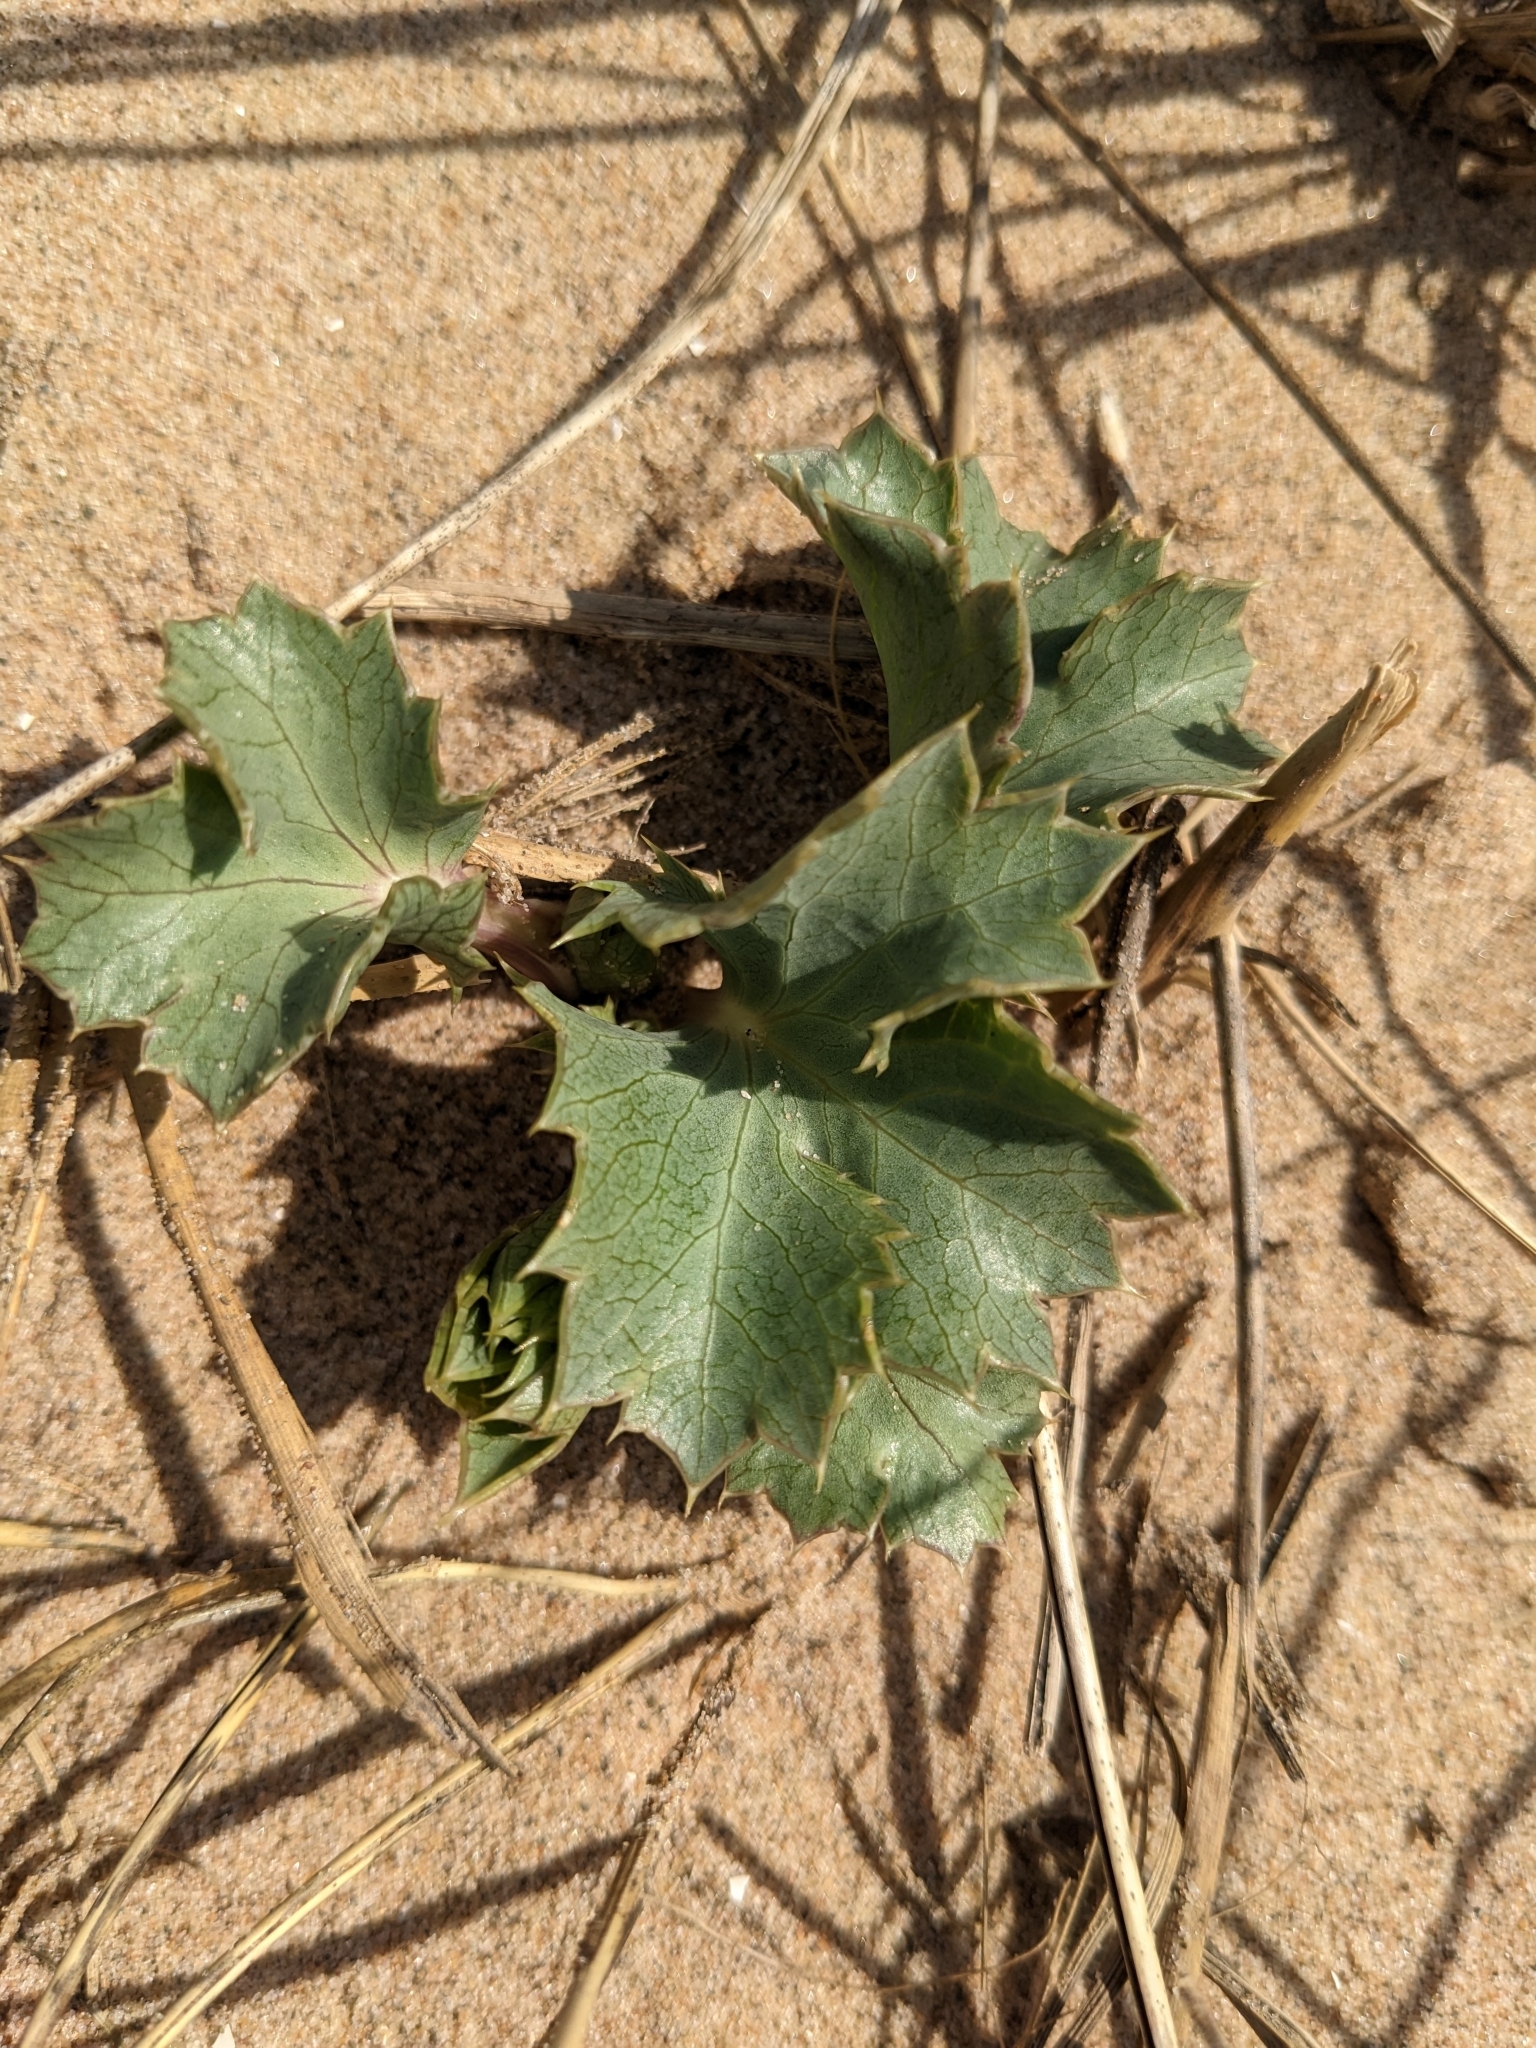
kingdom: Plantae
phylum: Tracheophyta
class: Magnoliopsida
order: Apiales
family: Apiaceae
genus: Eryngium
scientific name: Eryngium maritimum
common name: Sea-holly
